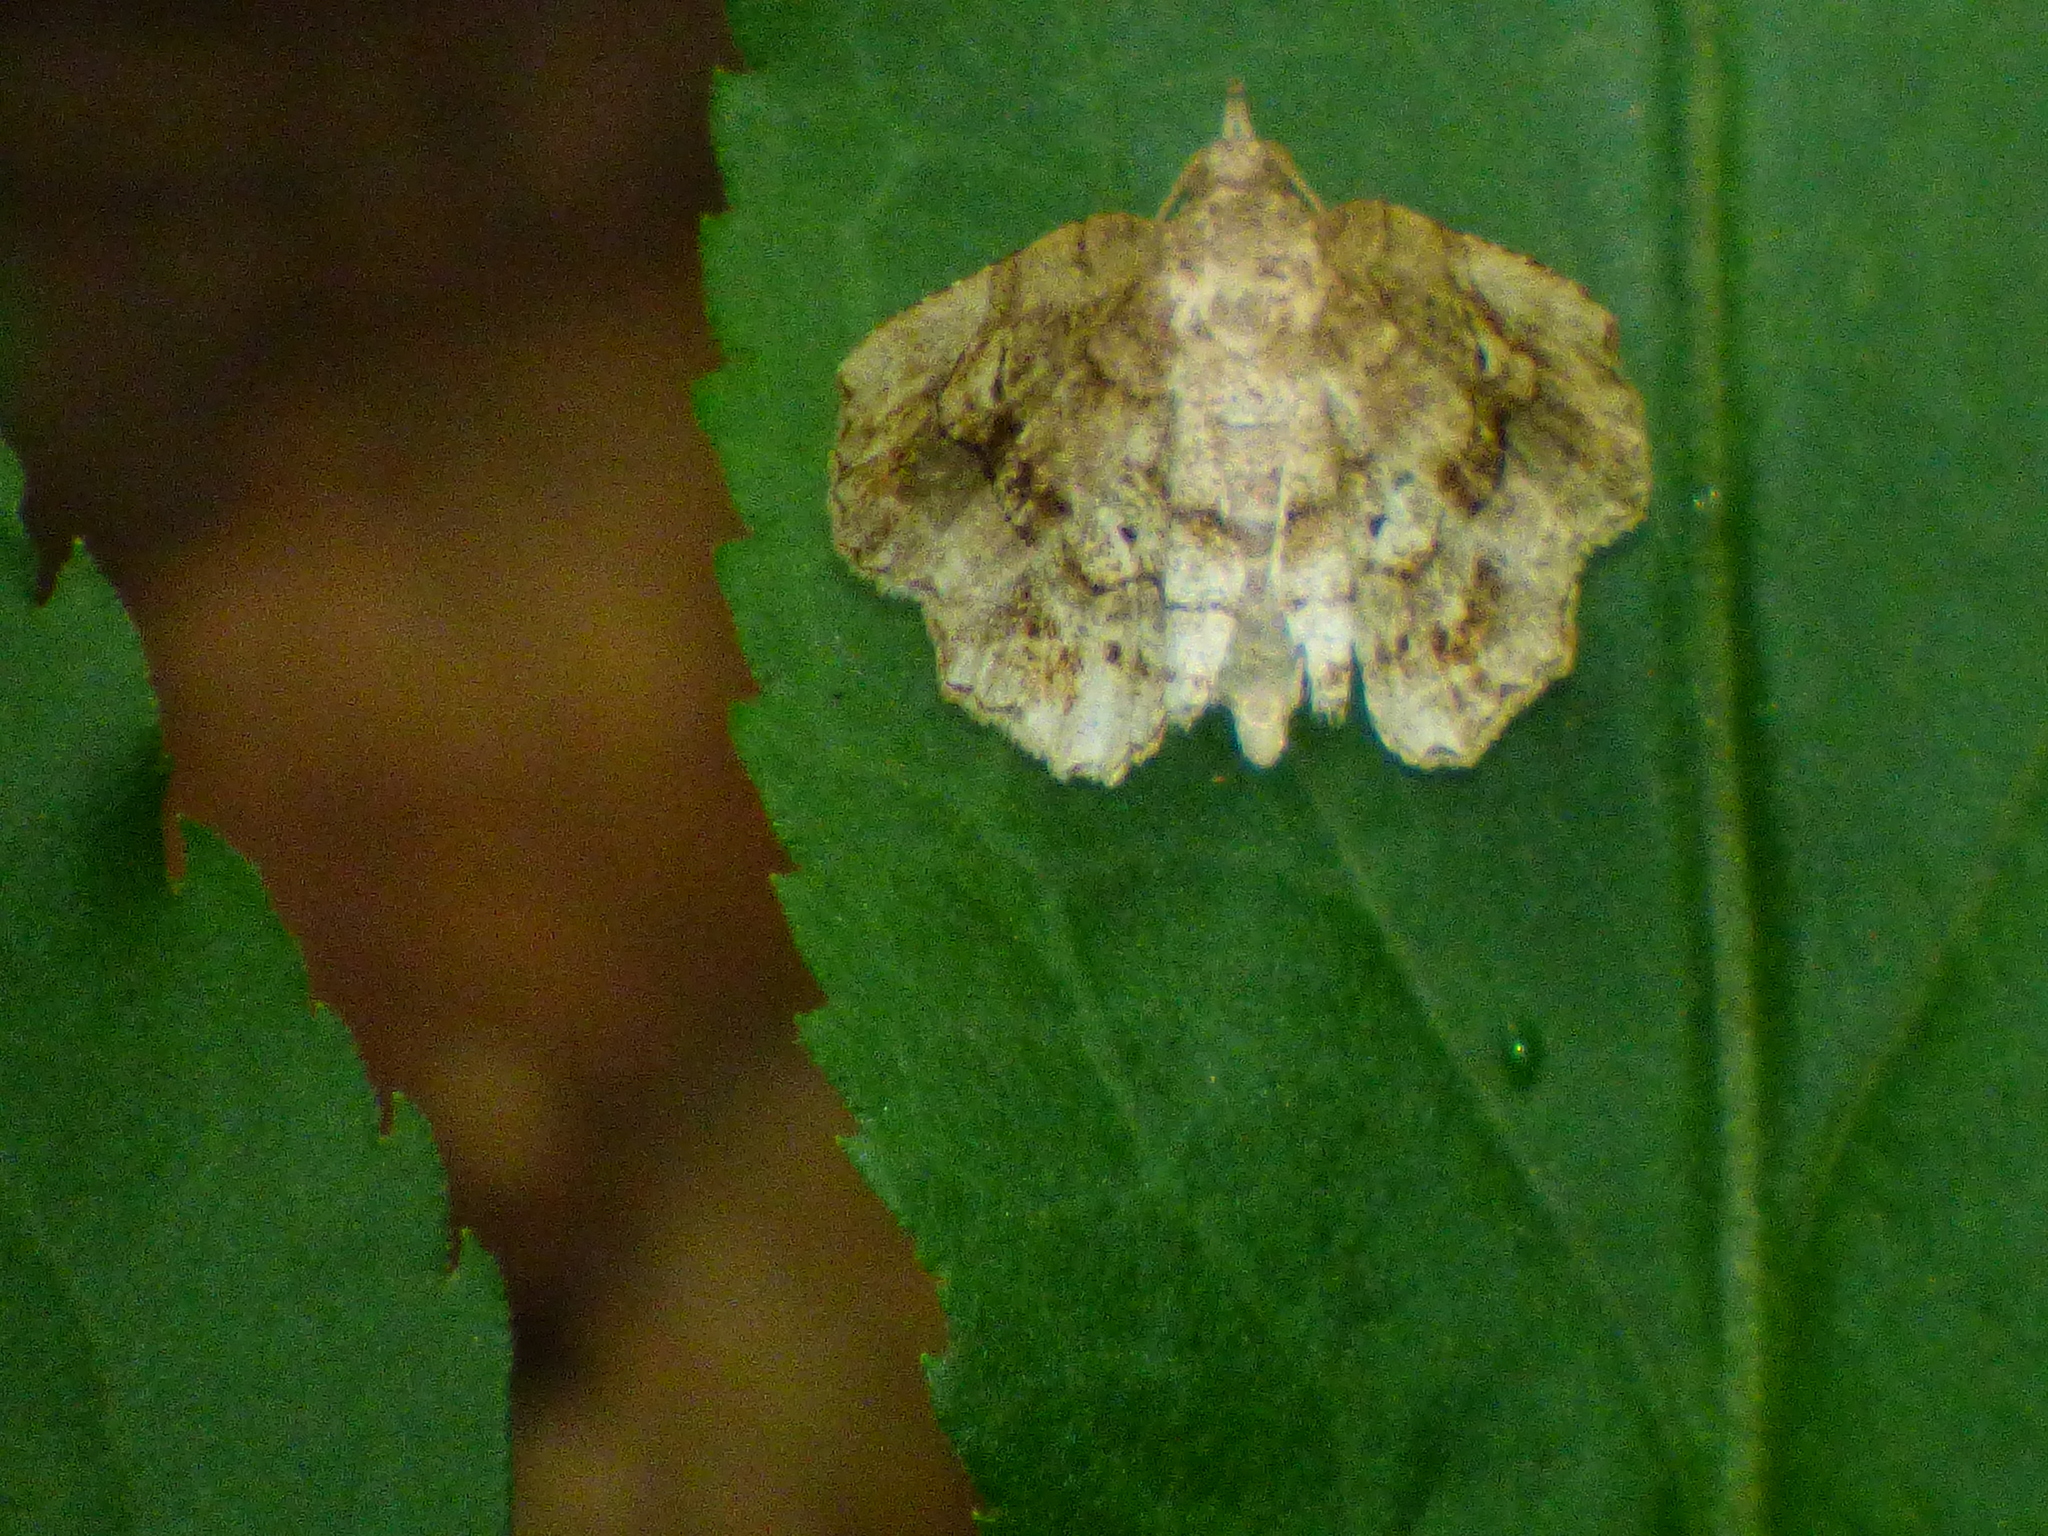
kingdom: Animalia
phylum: Arthropoda
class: Insecta
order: Lepidoptera
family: Erebidae
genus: Pangrapta
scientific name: Pangrapta decoralis
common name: Decorated owlet
